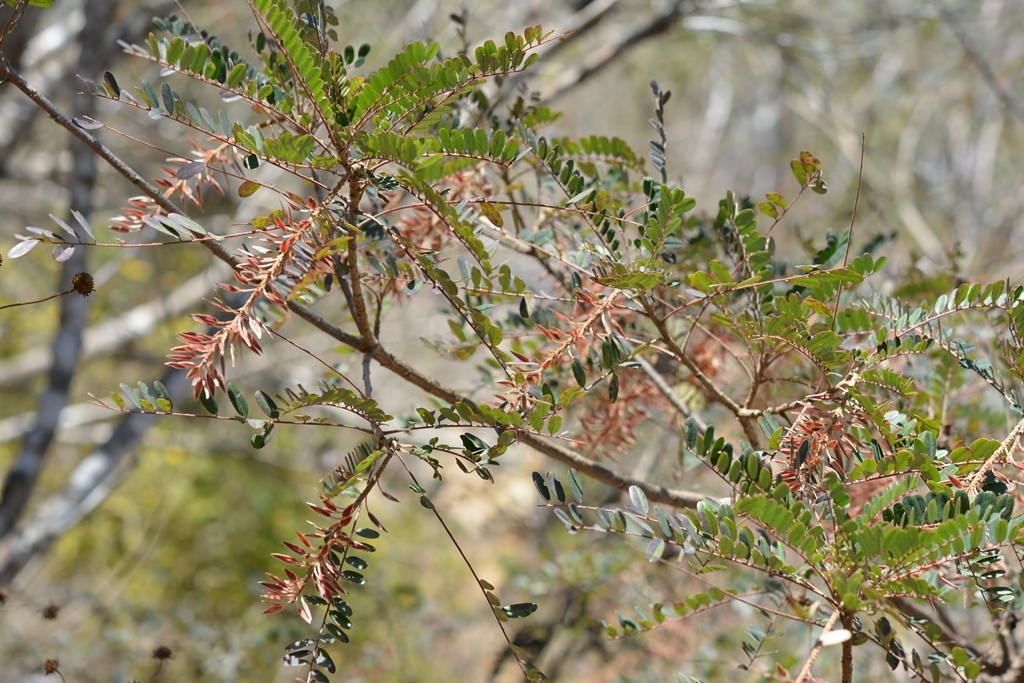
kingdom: Plantae
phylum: Tracheophyta
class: Magnoliopsida
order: Picramniales
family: Picramniaceae
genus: Alvaradoa
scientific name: Alvaradoa amorphoides
